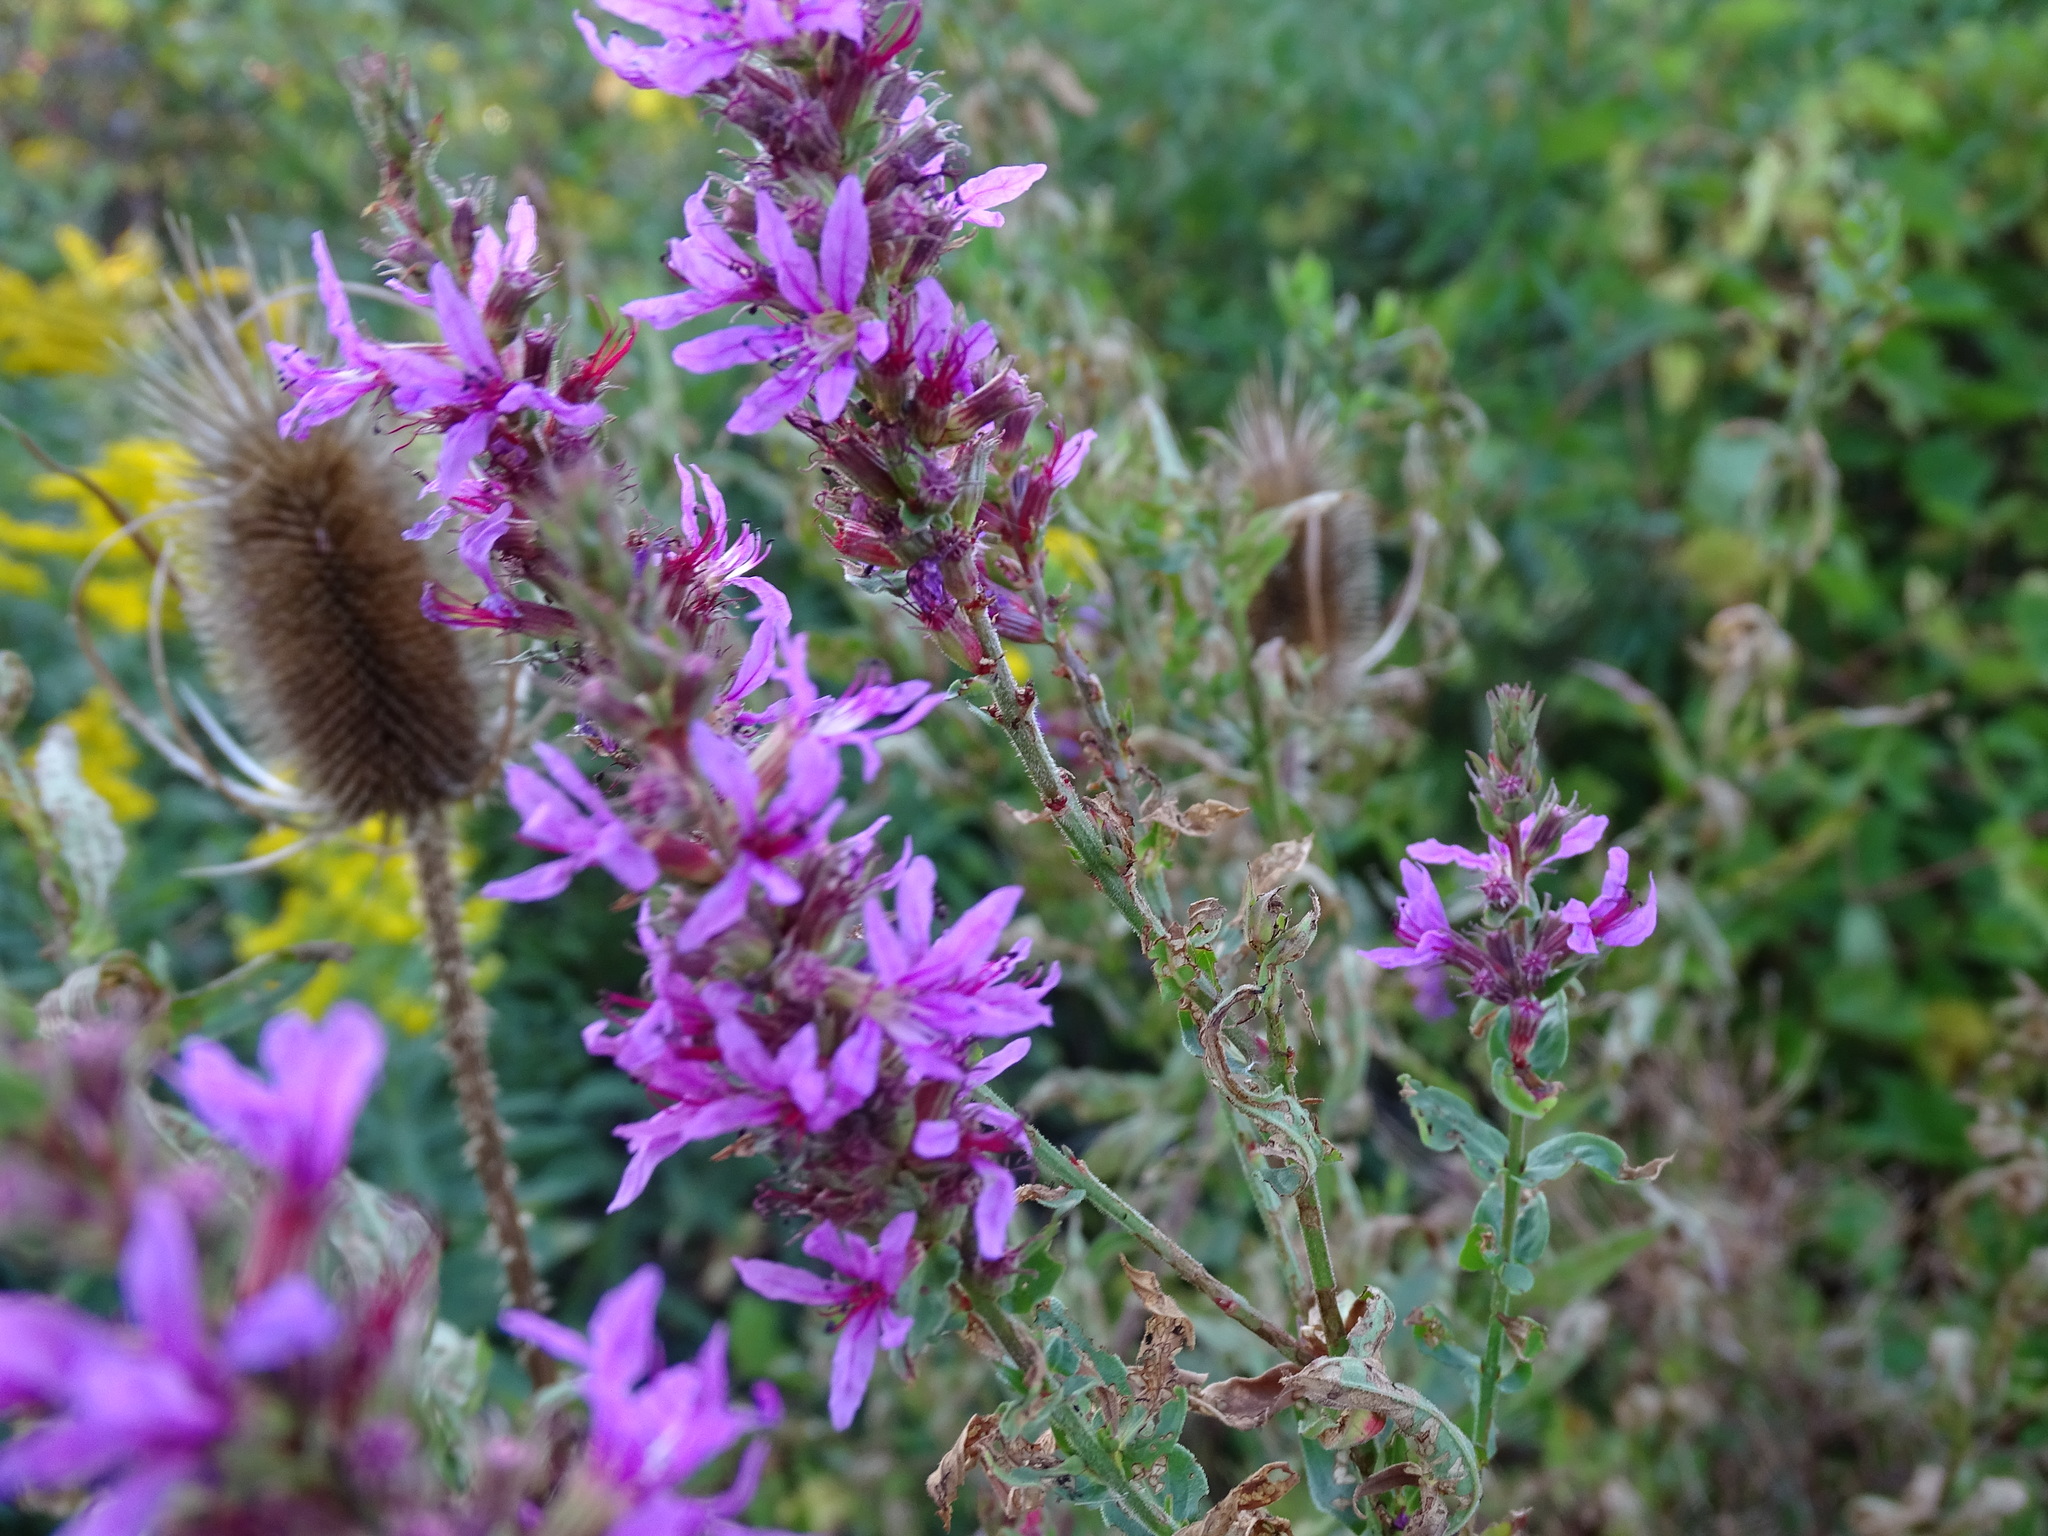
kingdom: Plantae
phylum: Tracheophyta
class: Magnoliopsida
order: Myrtales
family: Lythraceae
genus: Lythrum
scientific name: Lythrum salicaria
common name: Purple loosestrife
